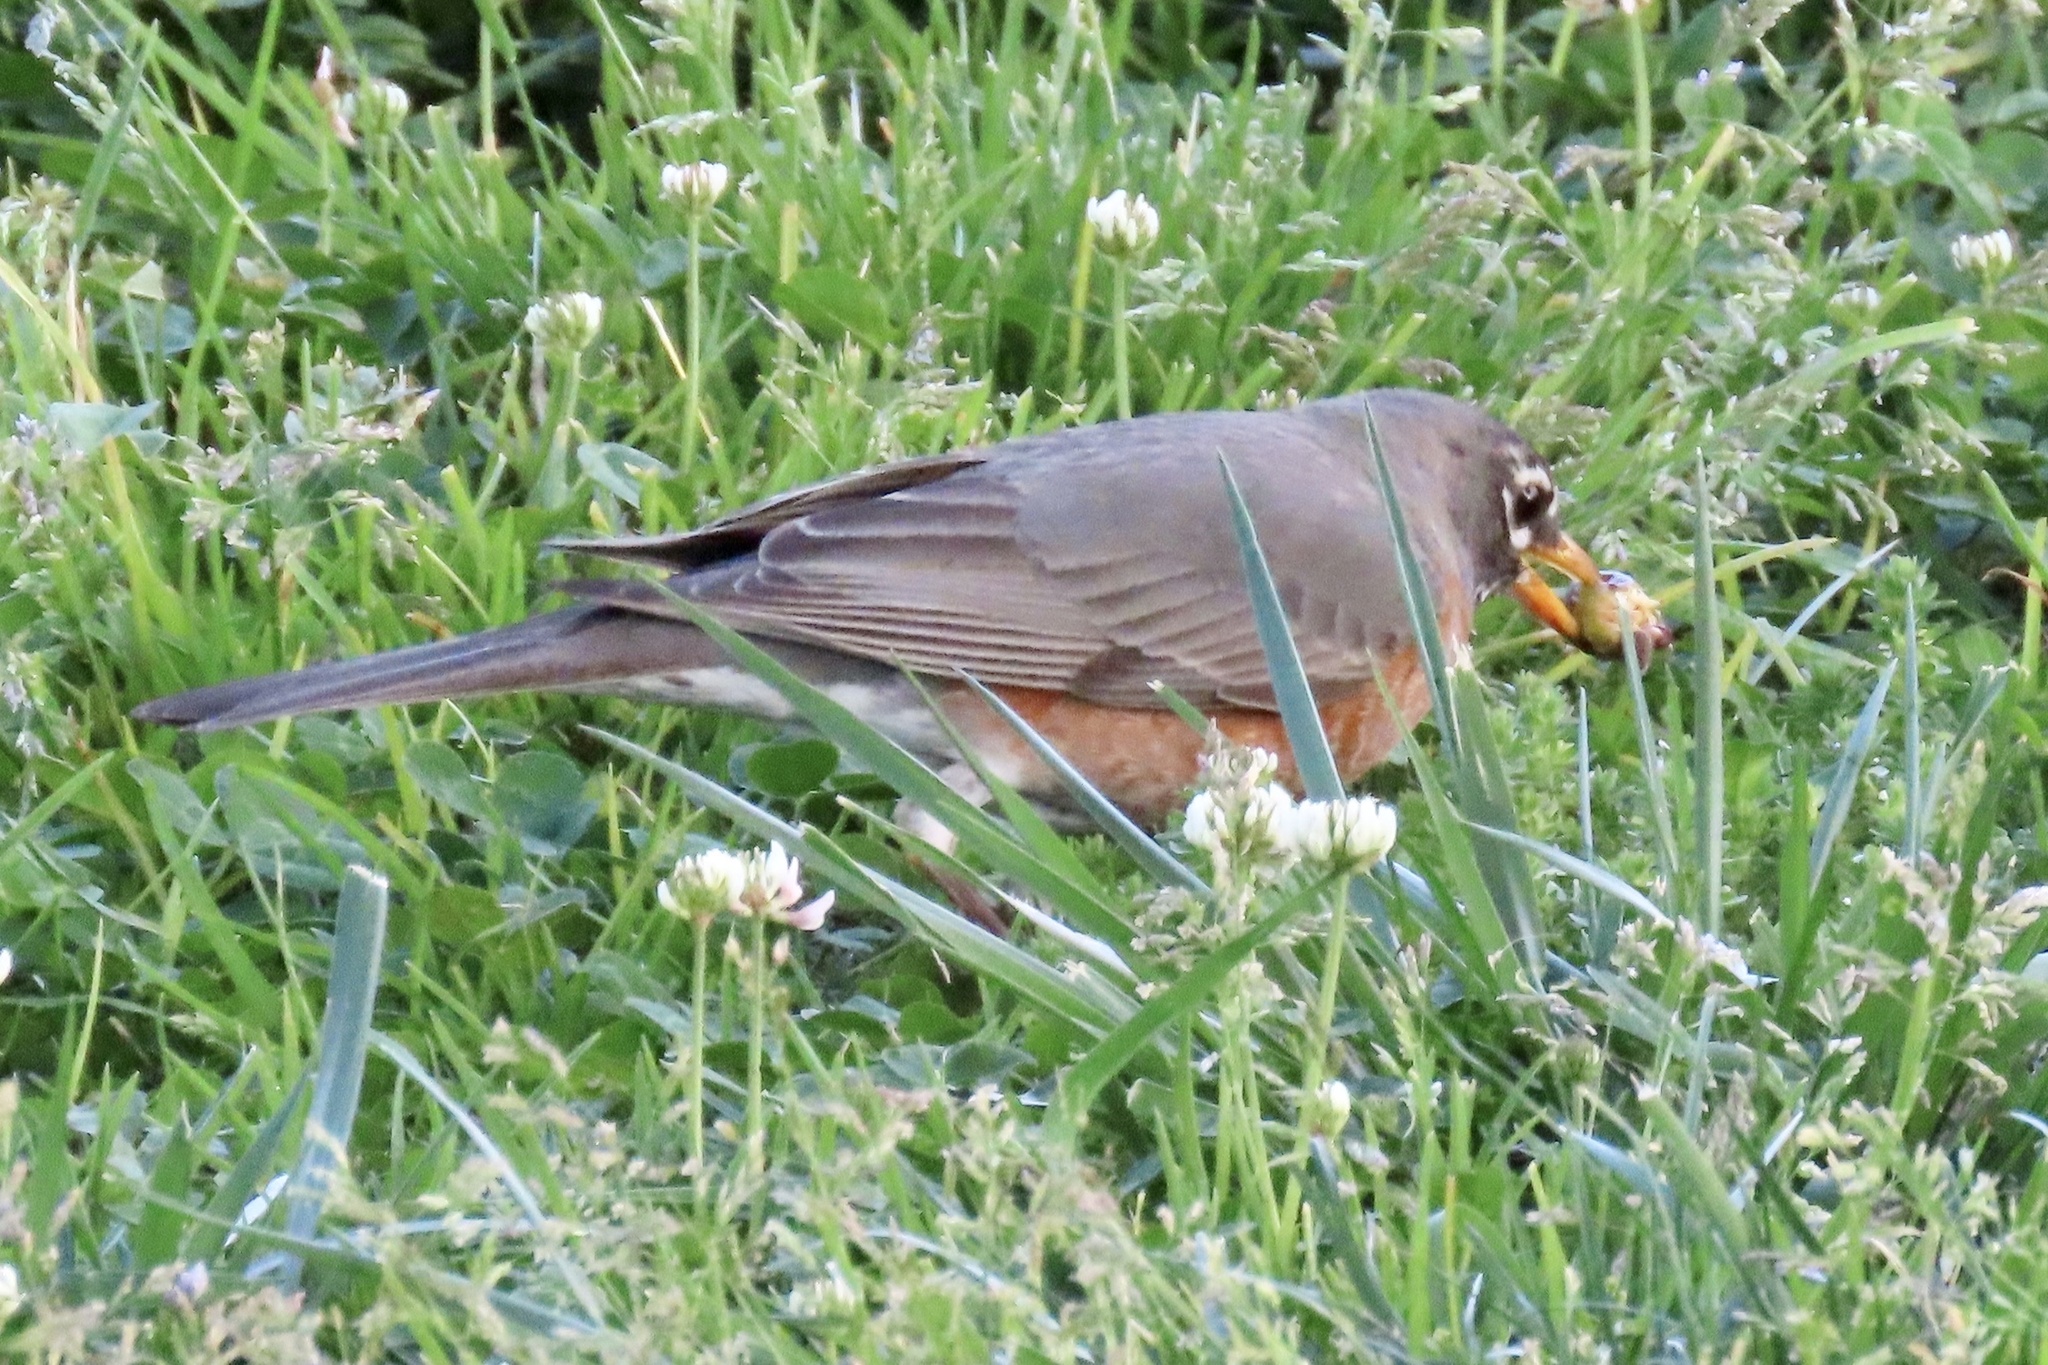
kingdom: Animalia
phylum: Chordata
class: Aves
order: Passeriformes
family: Turdidae
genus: Turdus
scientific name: Turdus migratorius
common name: American robin
